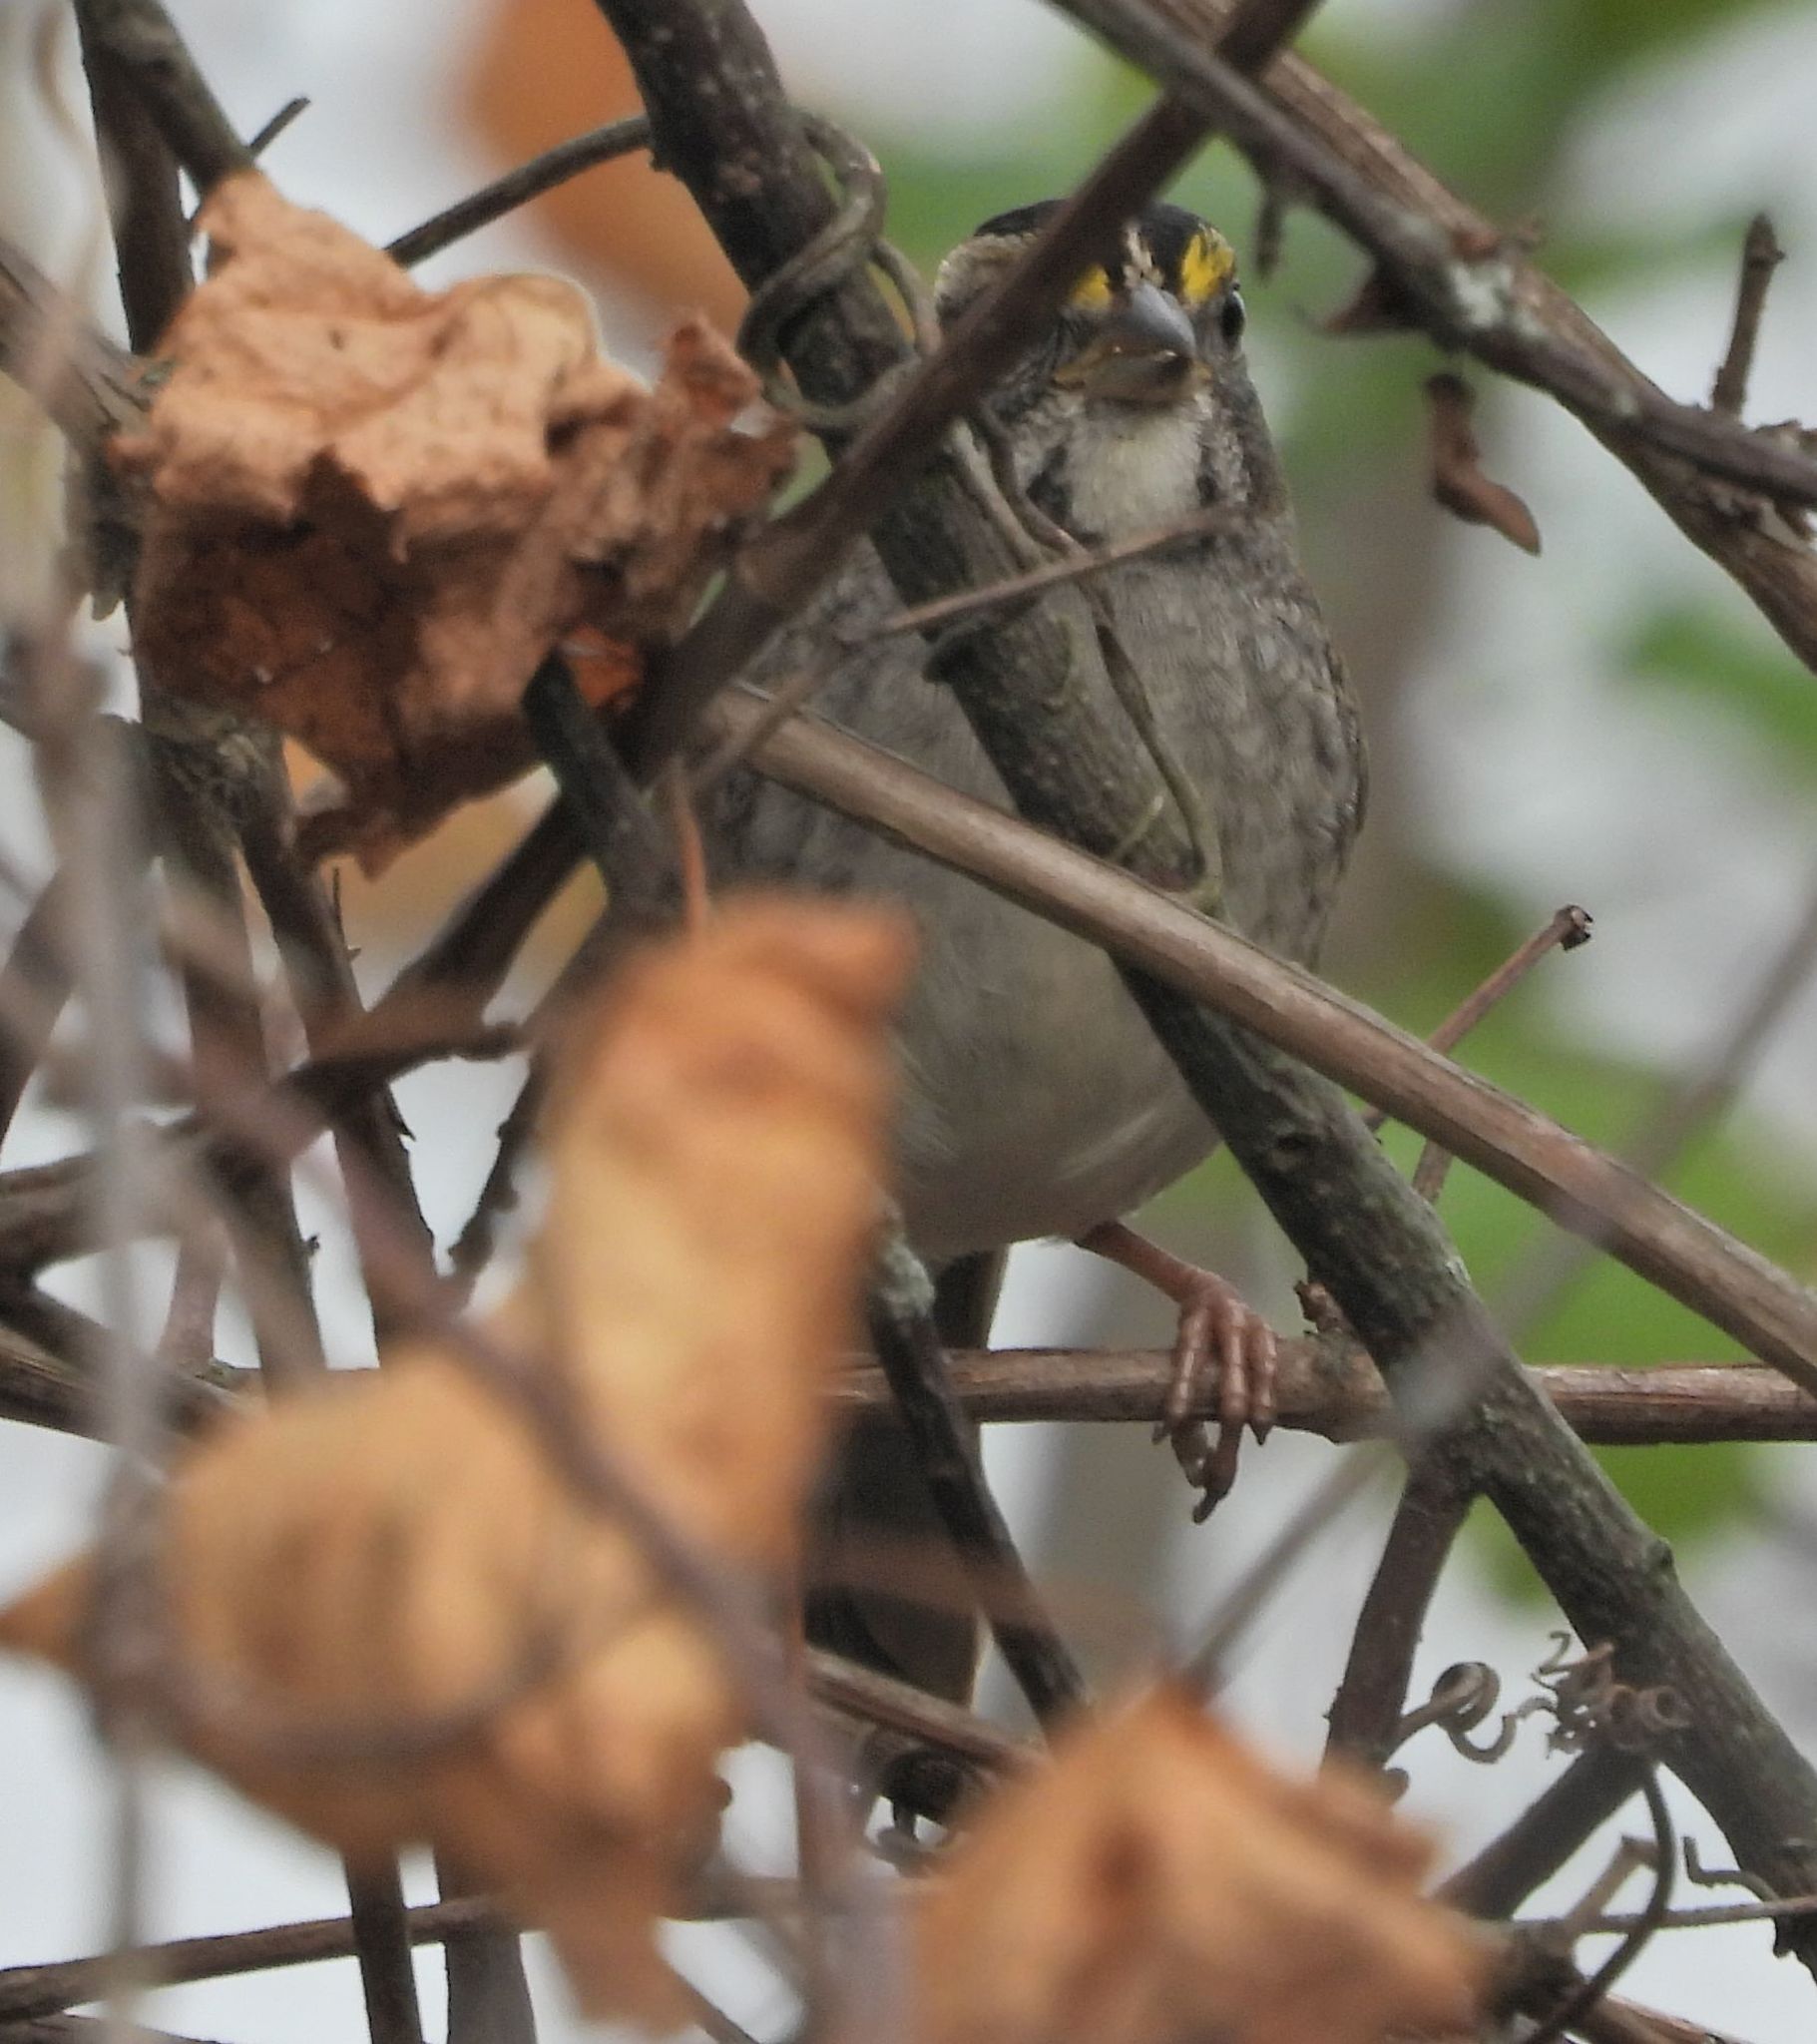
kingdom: Animalia
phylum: Chordata
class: Aves
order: Passeriformes
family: Passerellidae
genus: Zonotrichia
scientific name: Zonotrichia albicollis
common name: White-throated sparrow
